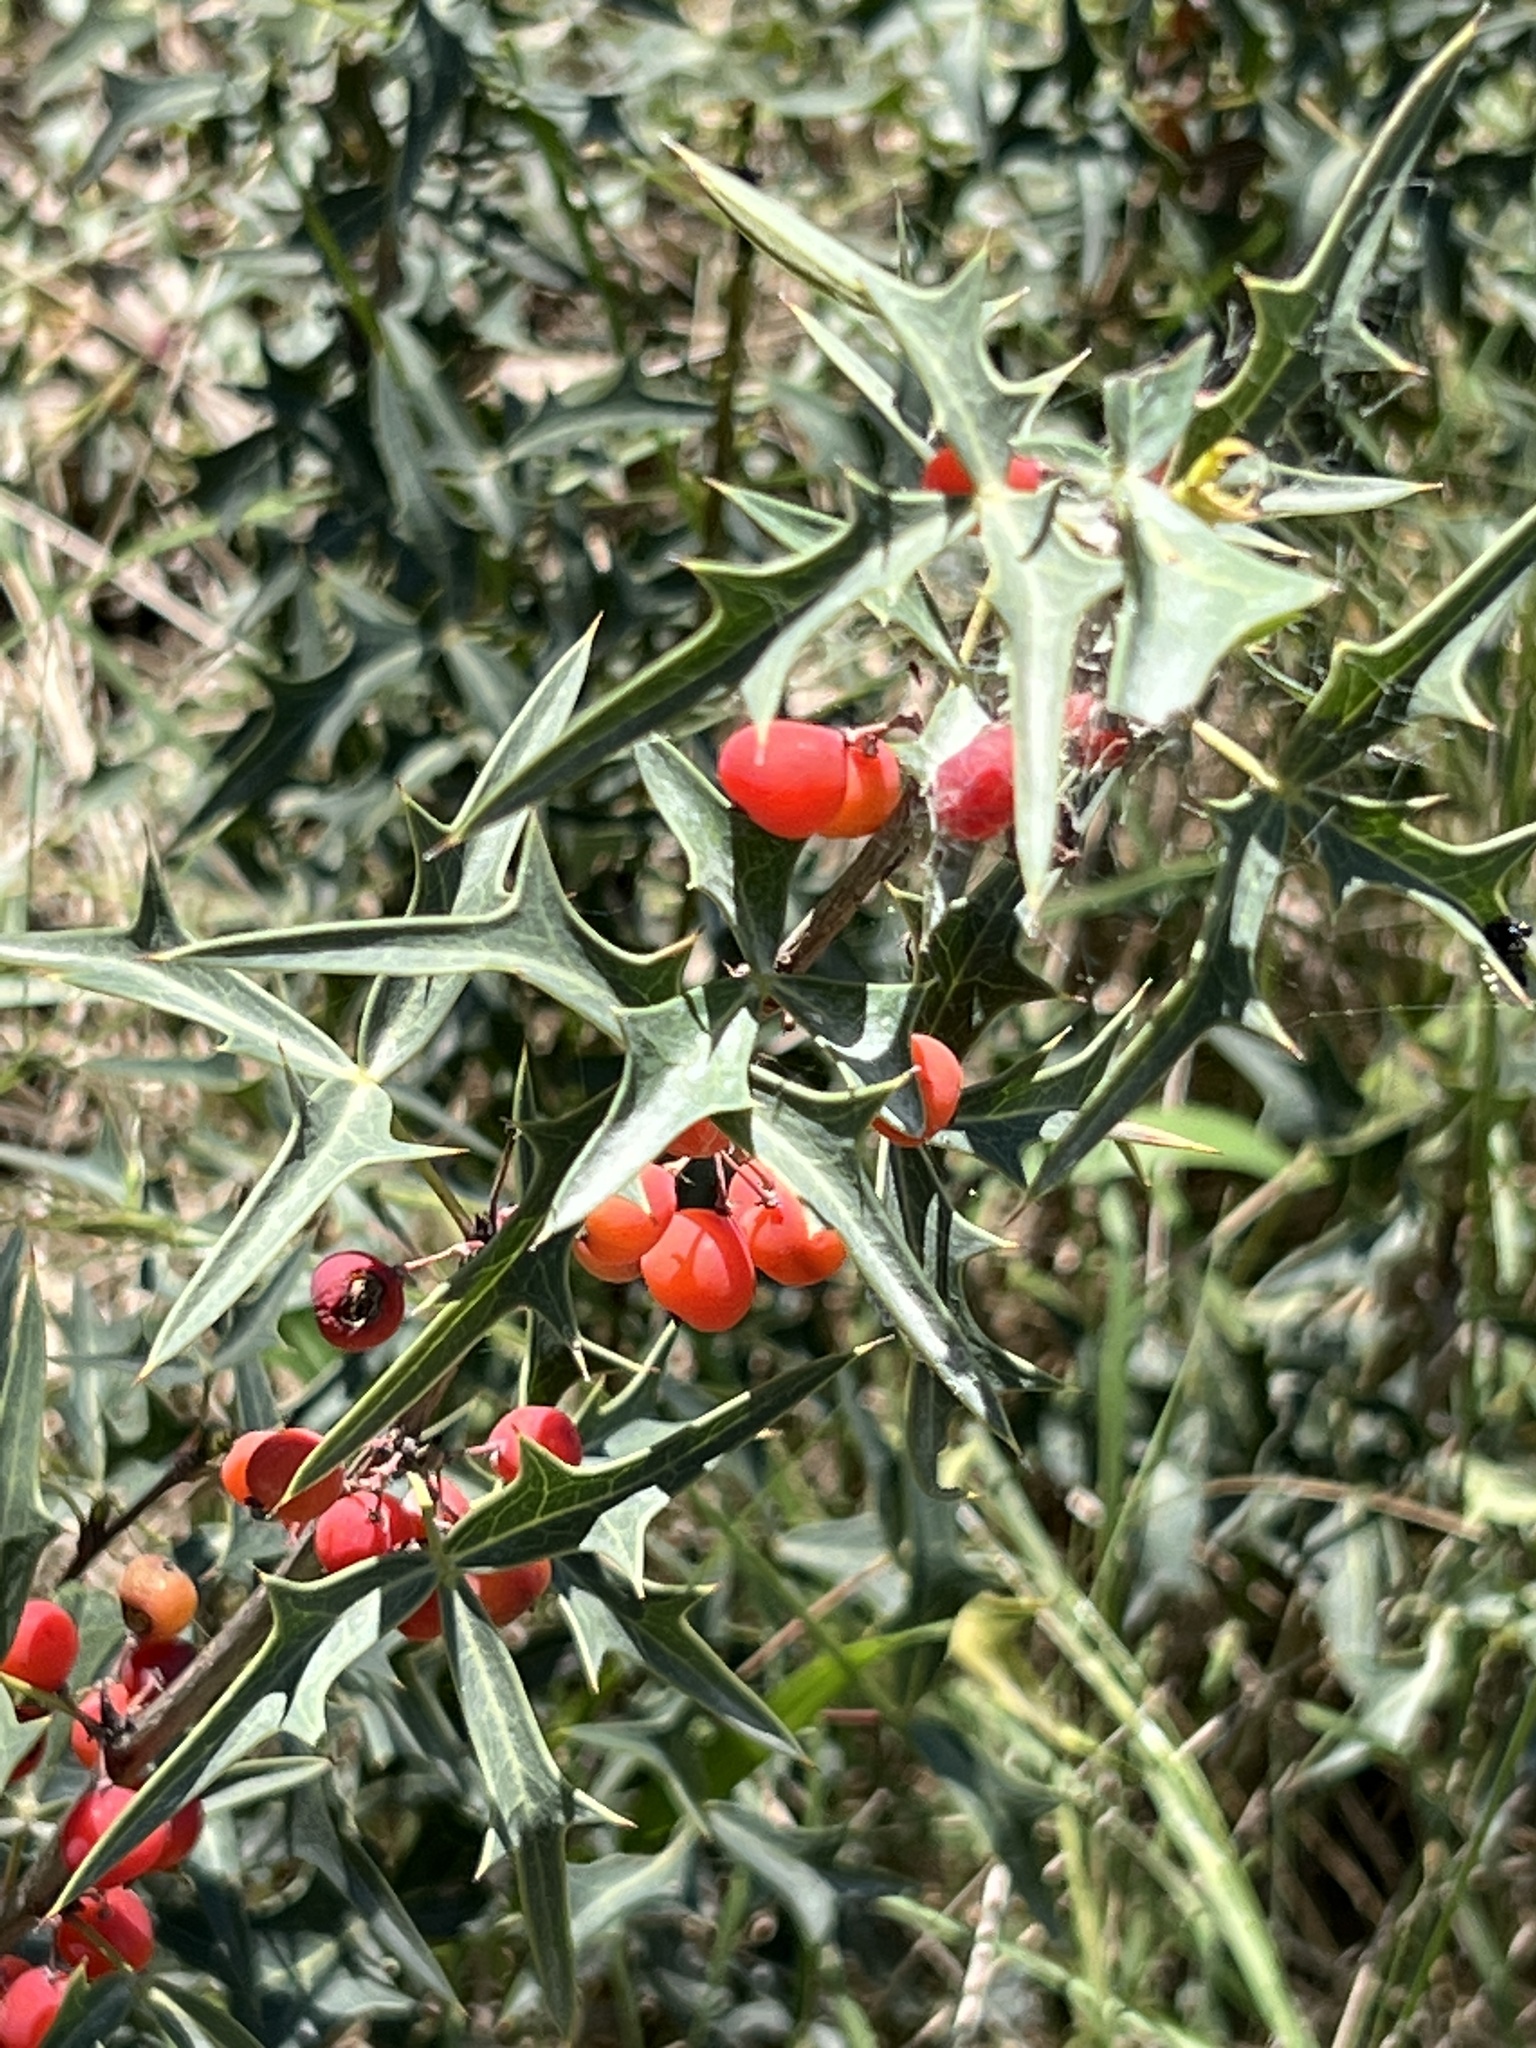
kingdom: Plantae
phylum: Tracheophyta
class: Magnoliopsida
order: Ranunculales
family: Berberidaceae
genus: Alloberberis
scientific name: Alloberberis trifoliolata
